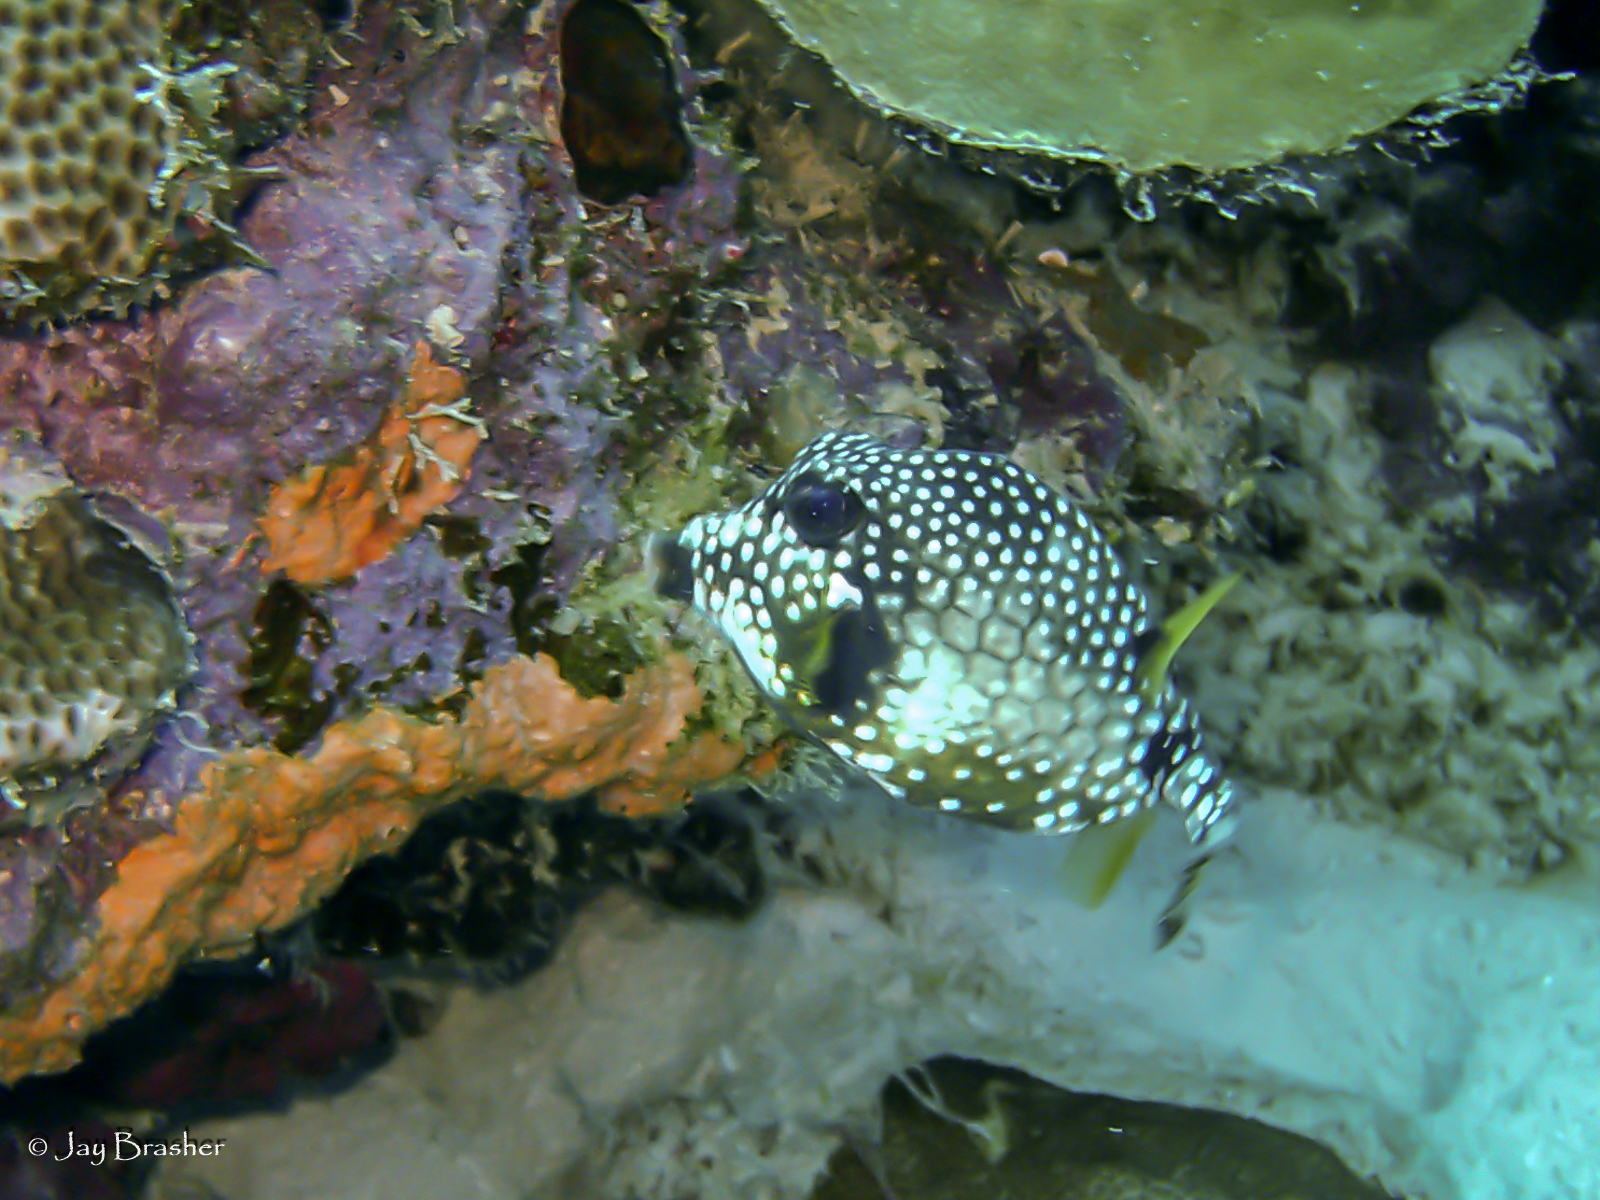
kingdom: Animalia
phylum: Chordata
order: Tetraodontiformes
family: Ostraciidae
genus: Lactophrys
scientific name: Lactophrys triqueter
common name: Smooth trunkfish
